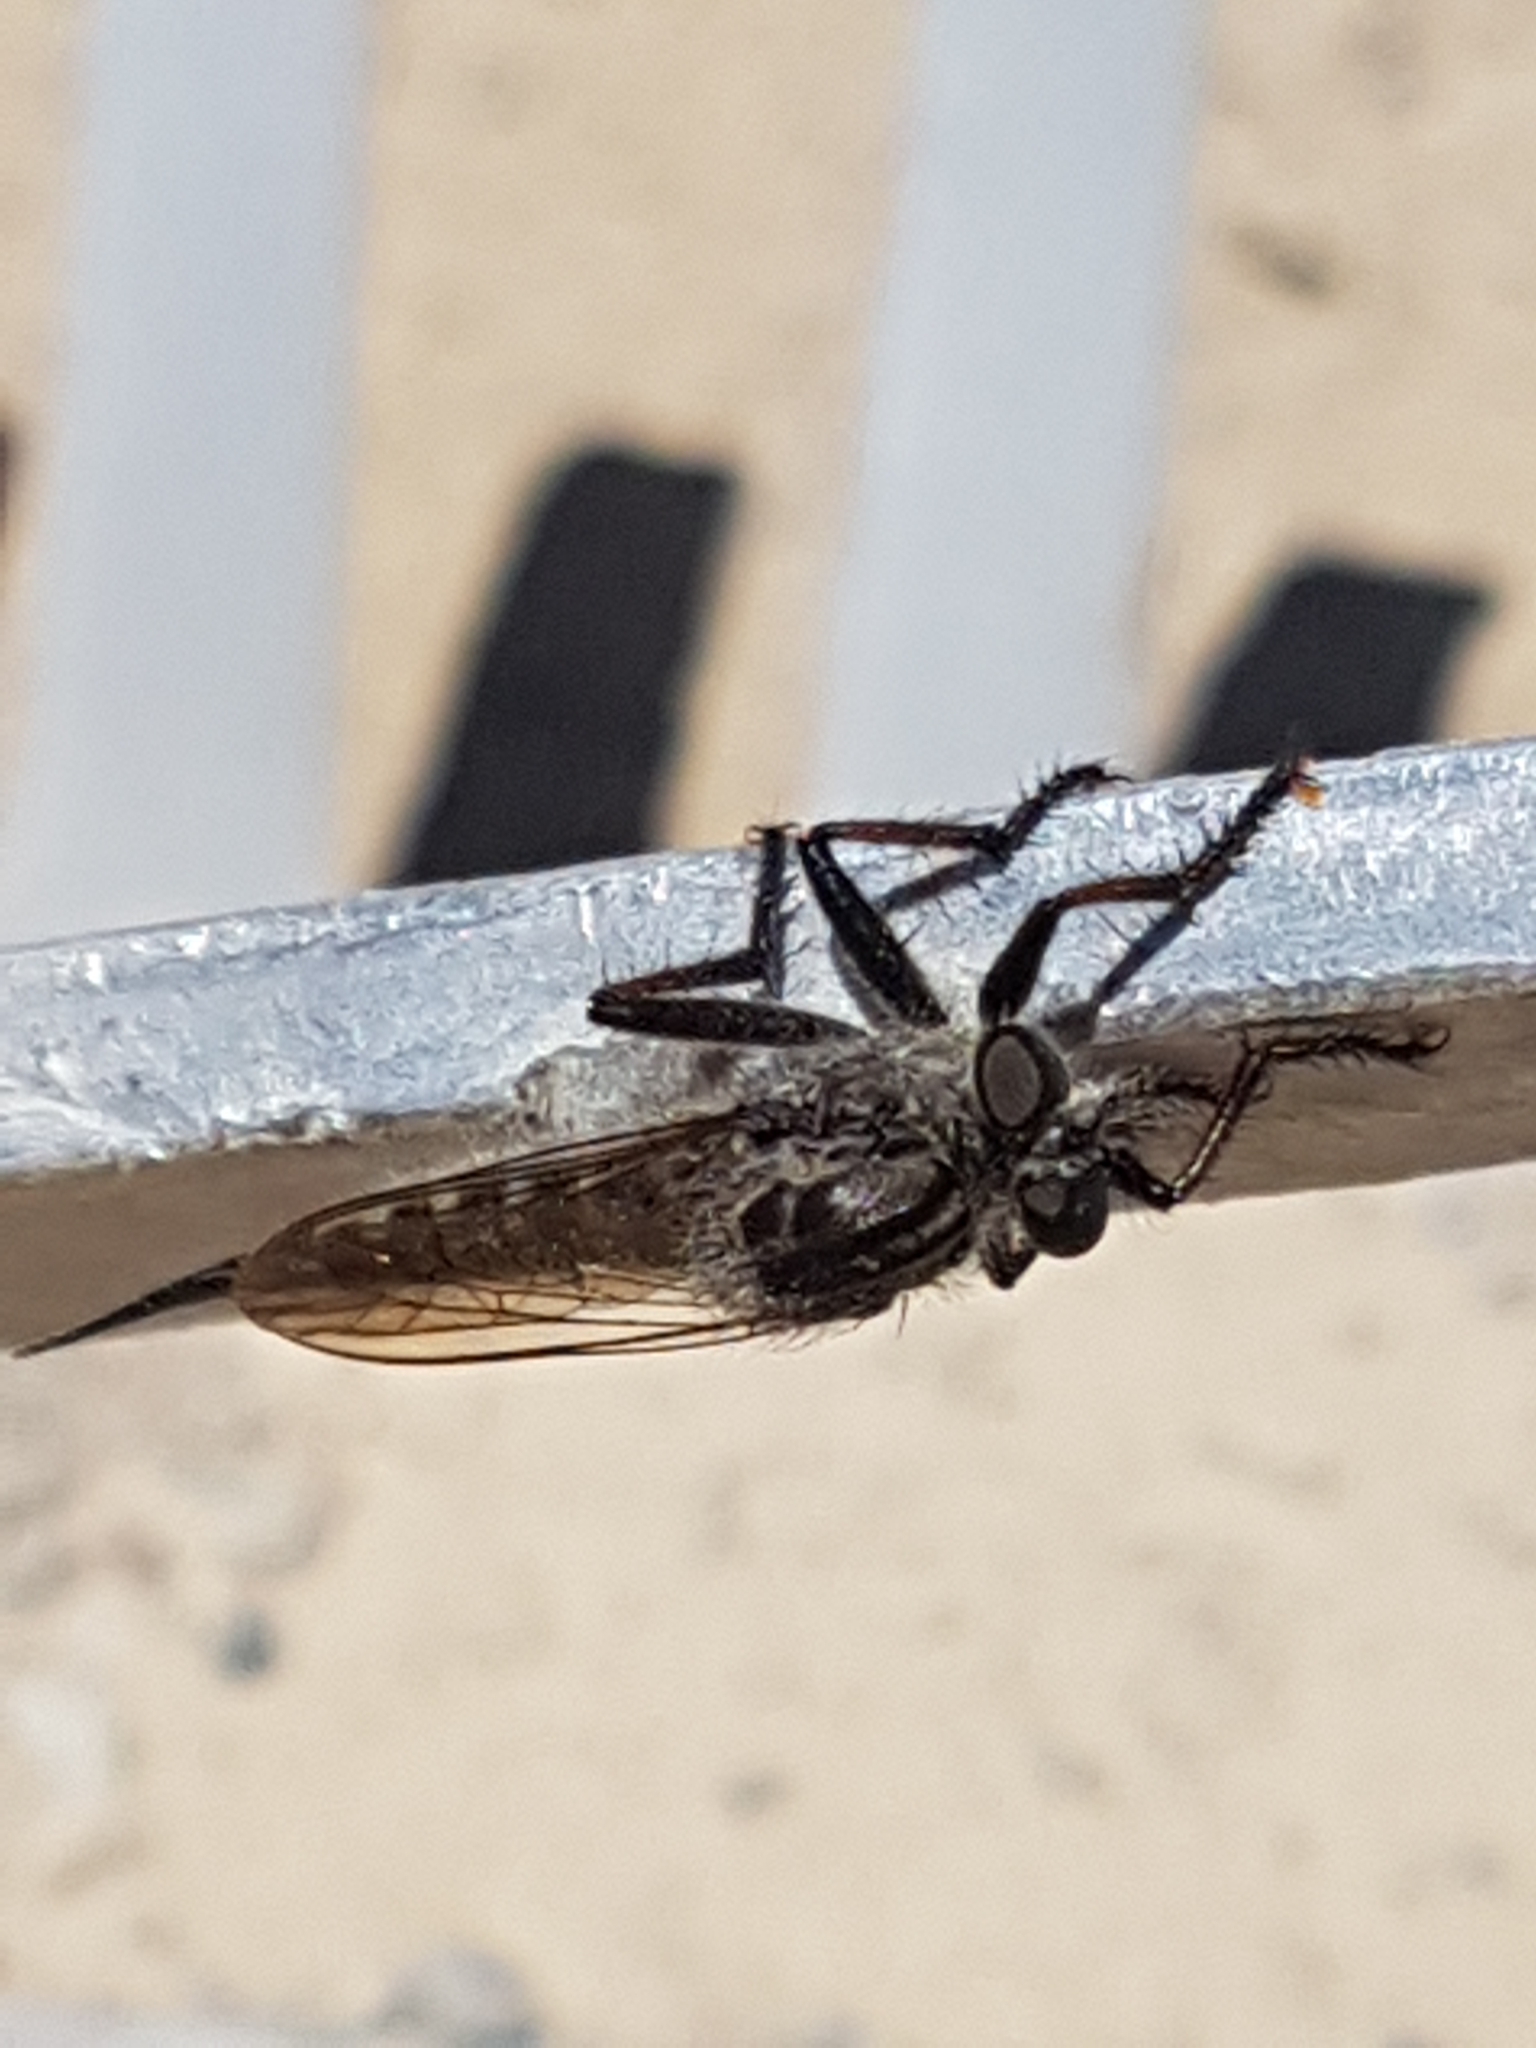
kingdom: Animalia
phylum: Arthropoda
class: Insecta
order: Diptera
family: Asilidae
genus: Efferia
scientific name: Efferia aestuans
